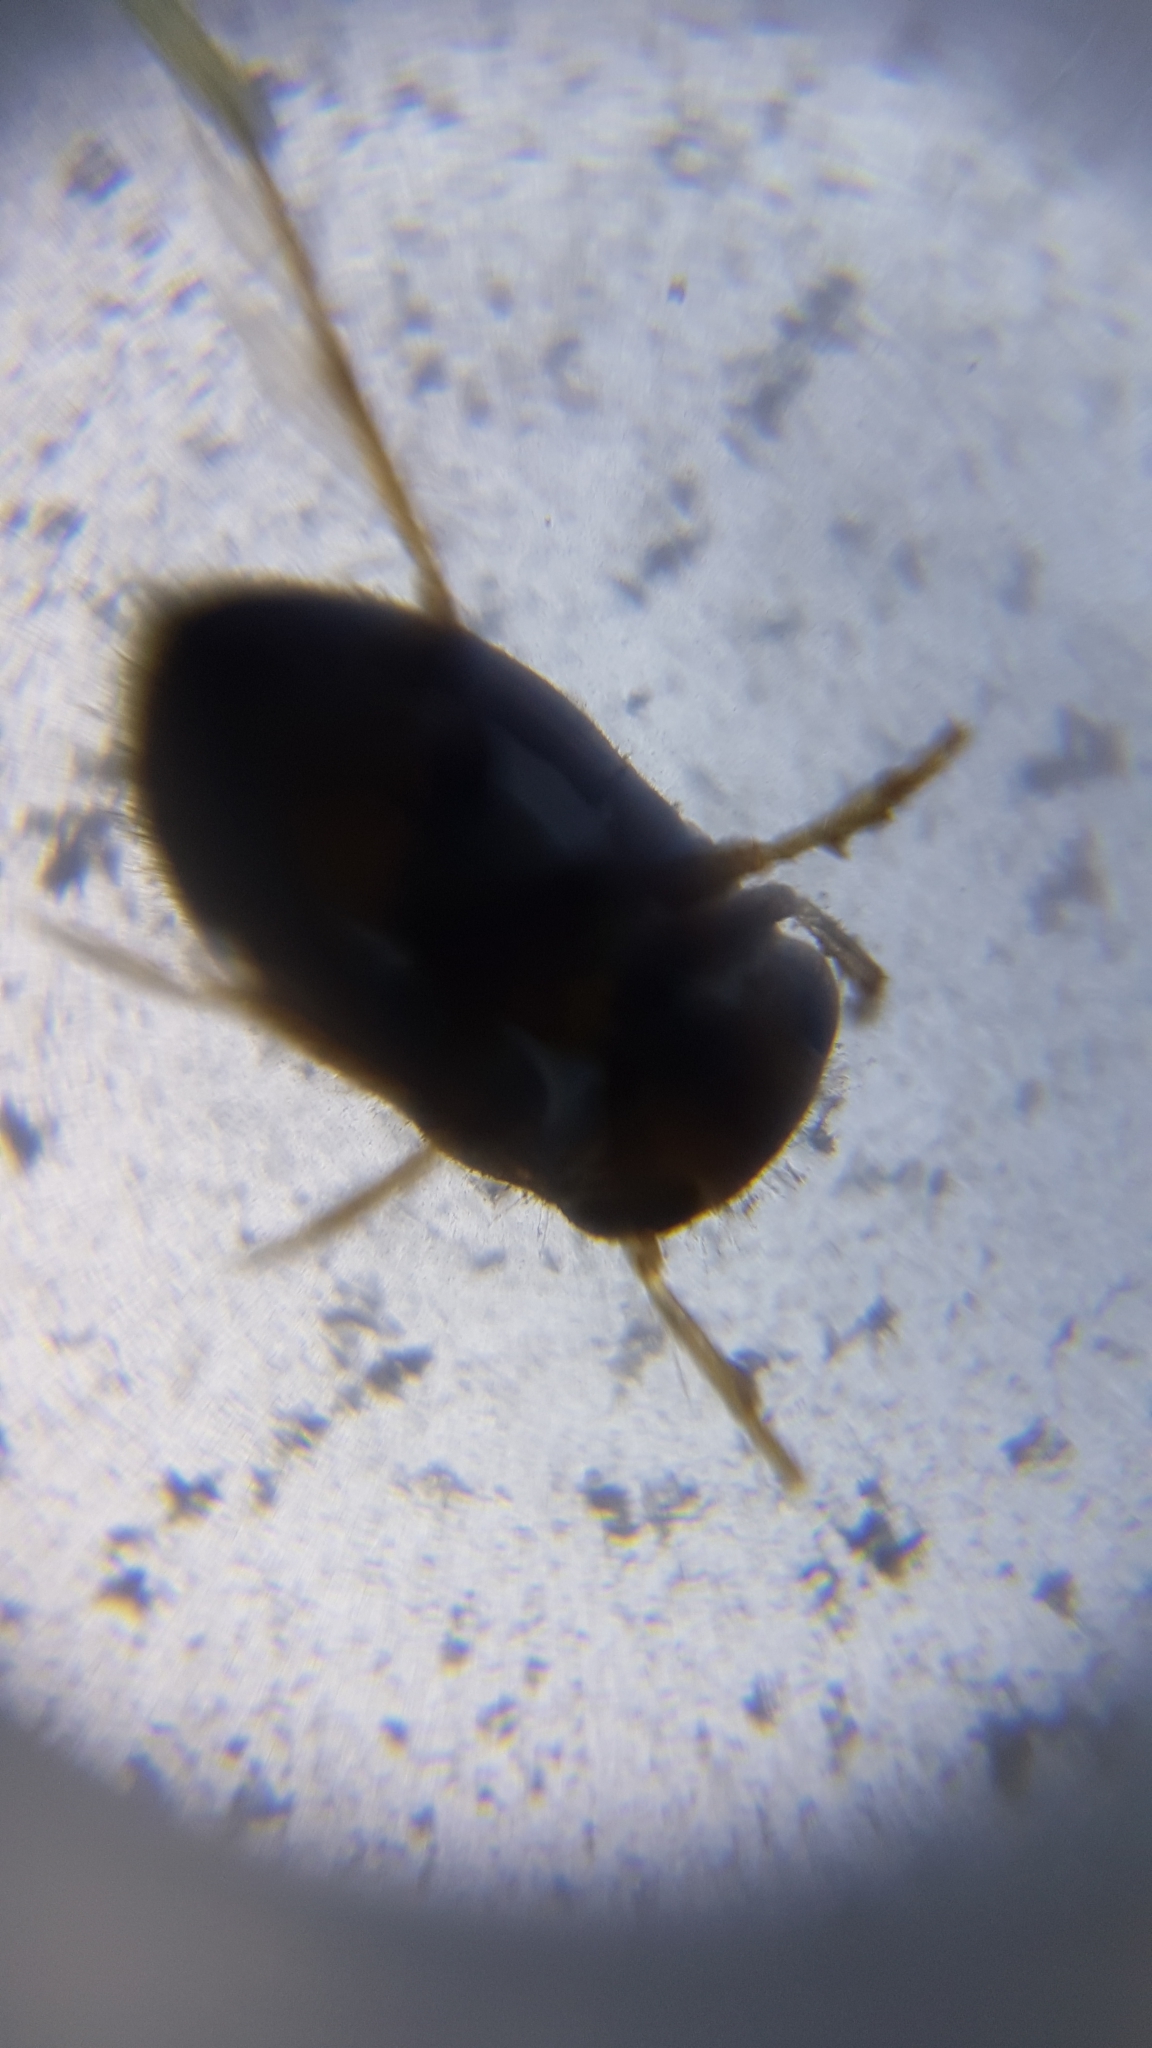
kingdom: Animalia
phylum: Arthropoda
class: Insecta
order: Hemiptera
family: Pleidae
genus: Neoplea
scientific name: Neoplea striola
